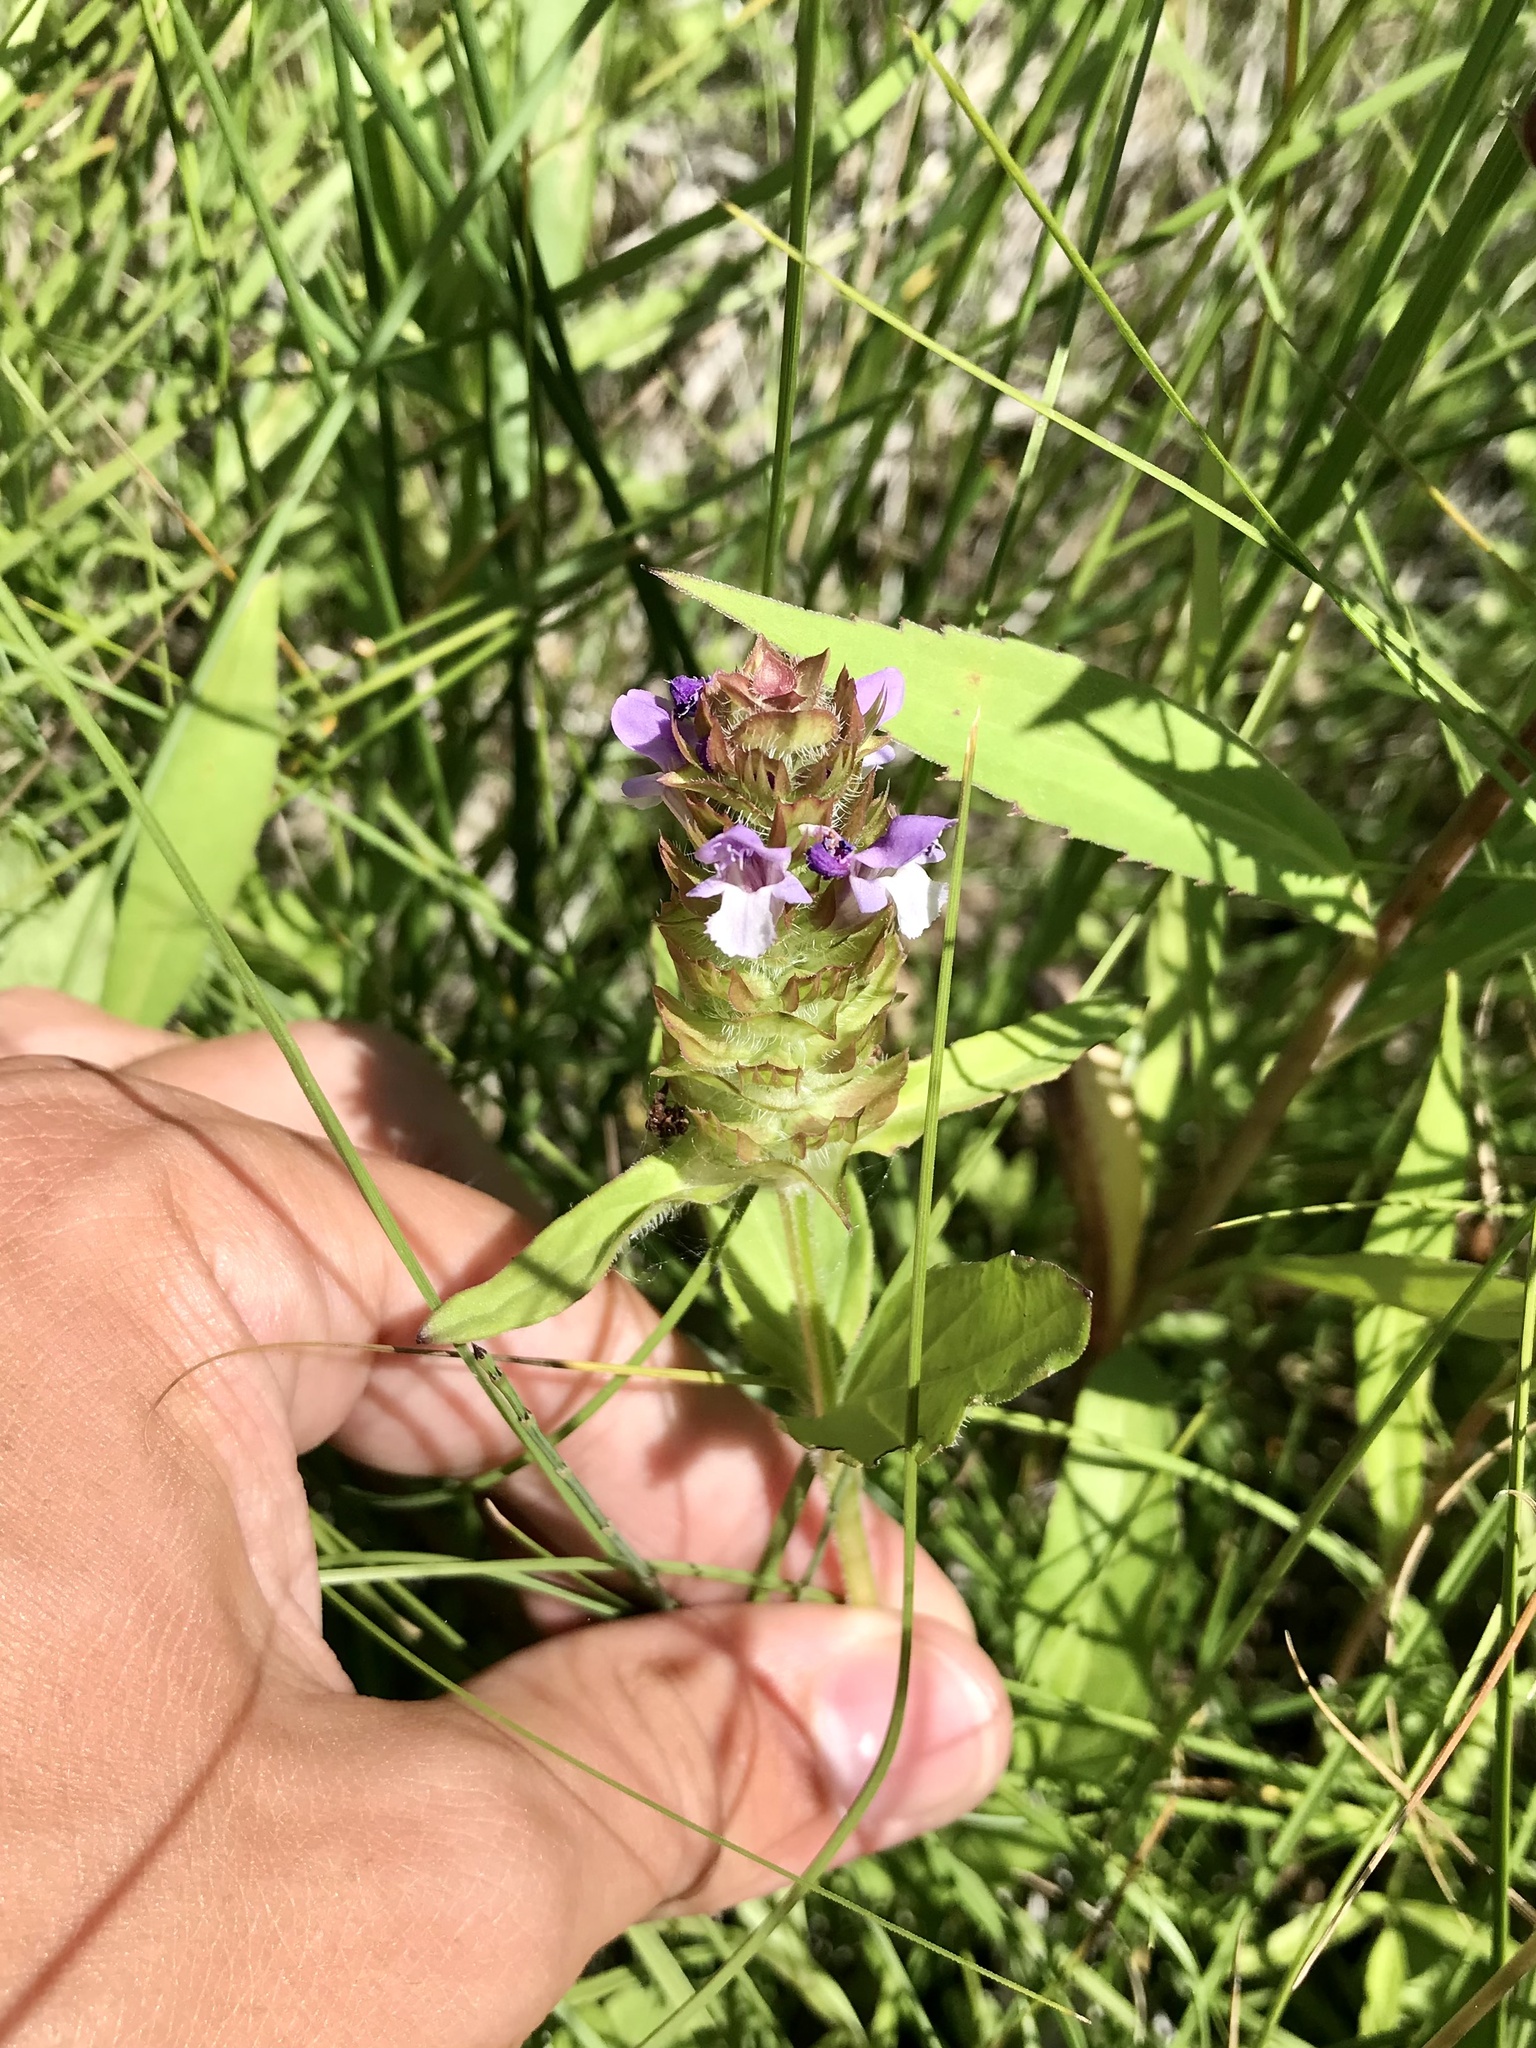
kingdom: Plantae
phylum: Tracheophyta
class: Magnoliopsida
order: Lamiales
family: Lamiaceae
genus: Prunella
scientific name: Prunella vulgaris
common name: Heal-all
